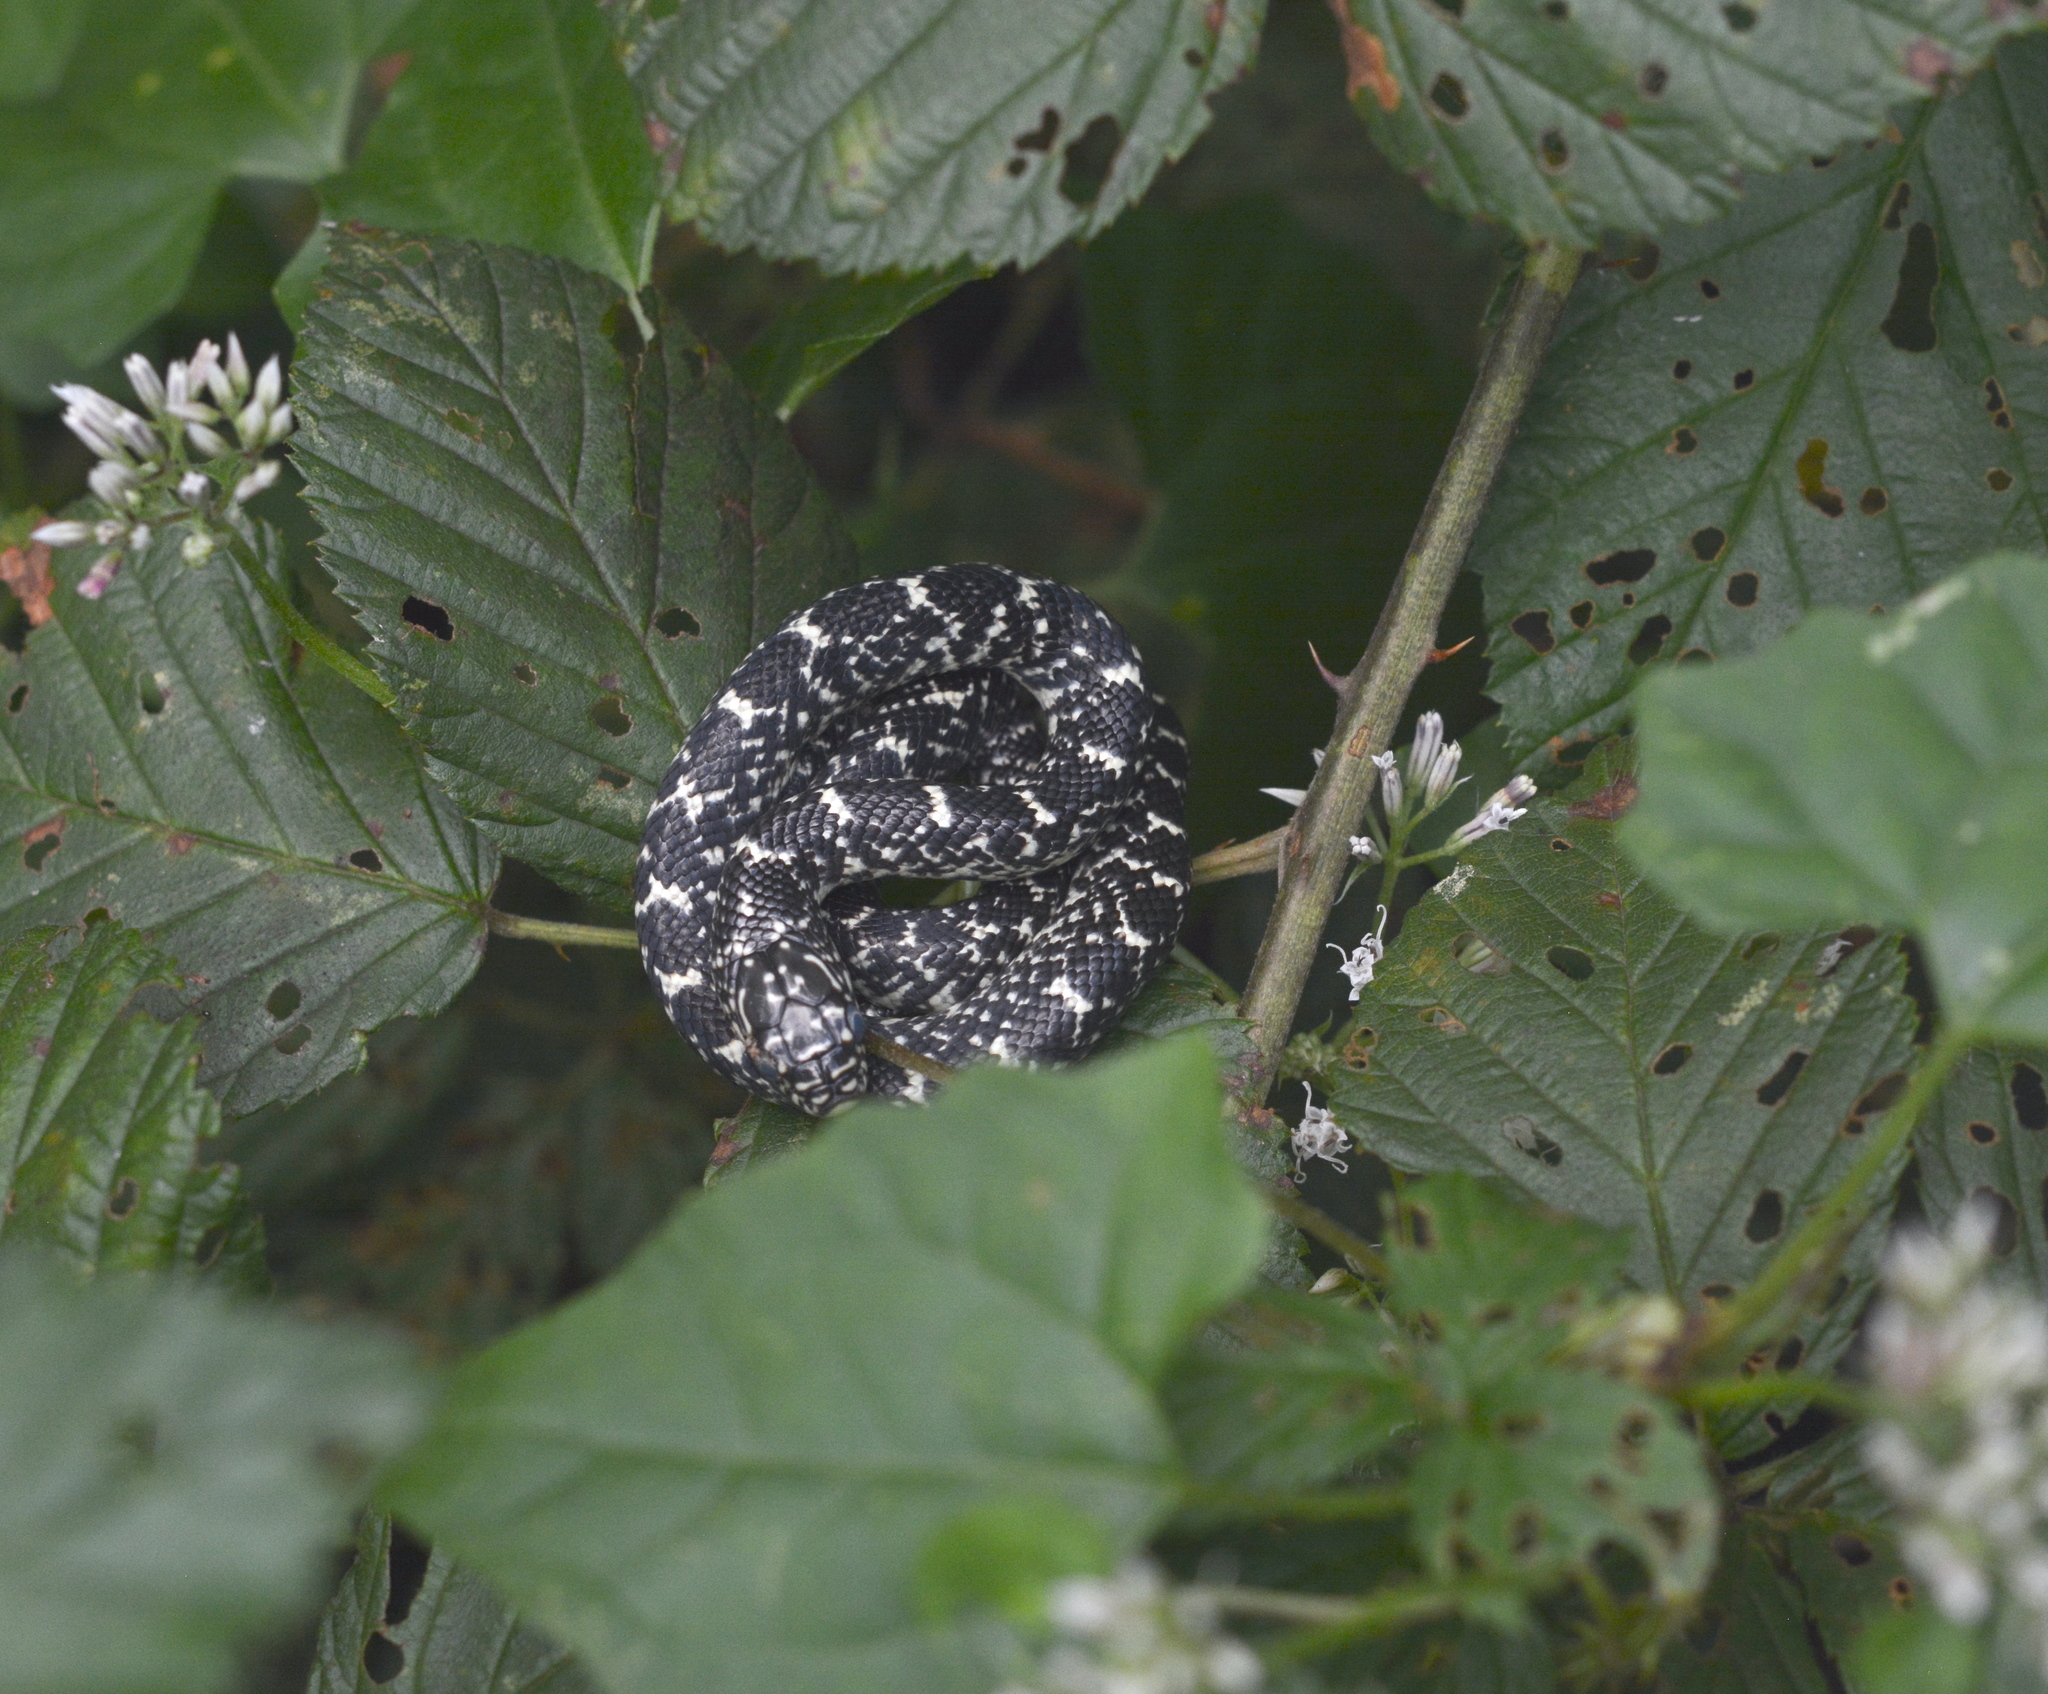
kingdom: Animalia
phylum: Chordata
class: Squamata
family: Colubridae
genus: Lampropeltis
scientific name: Lampropeltis holbrooki
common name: Speckled kingsnake
